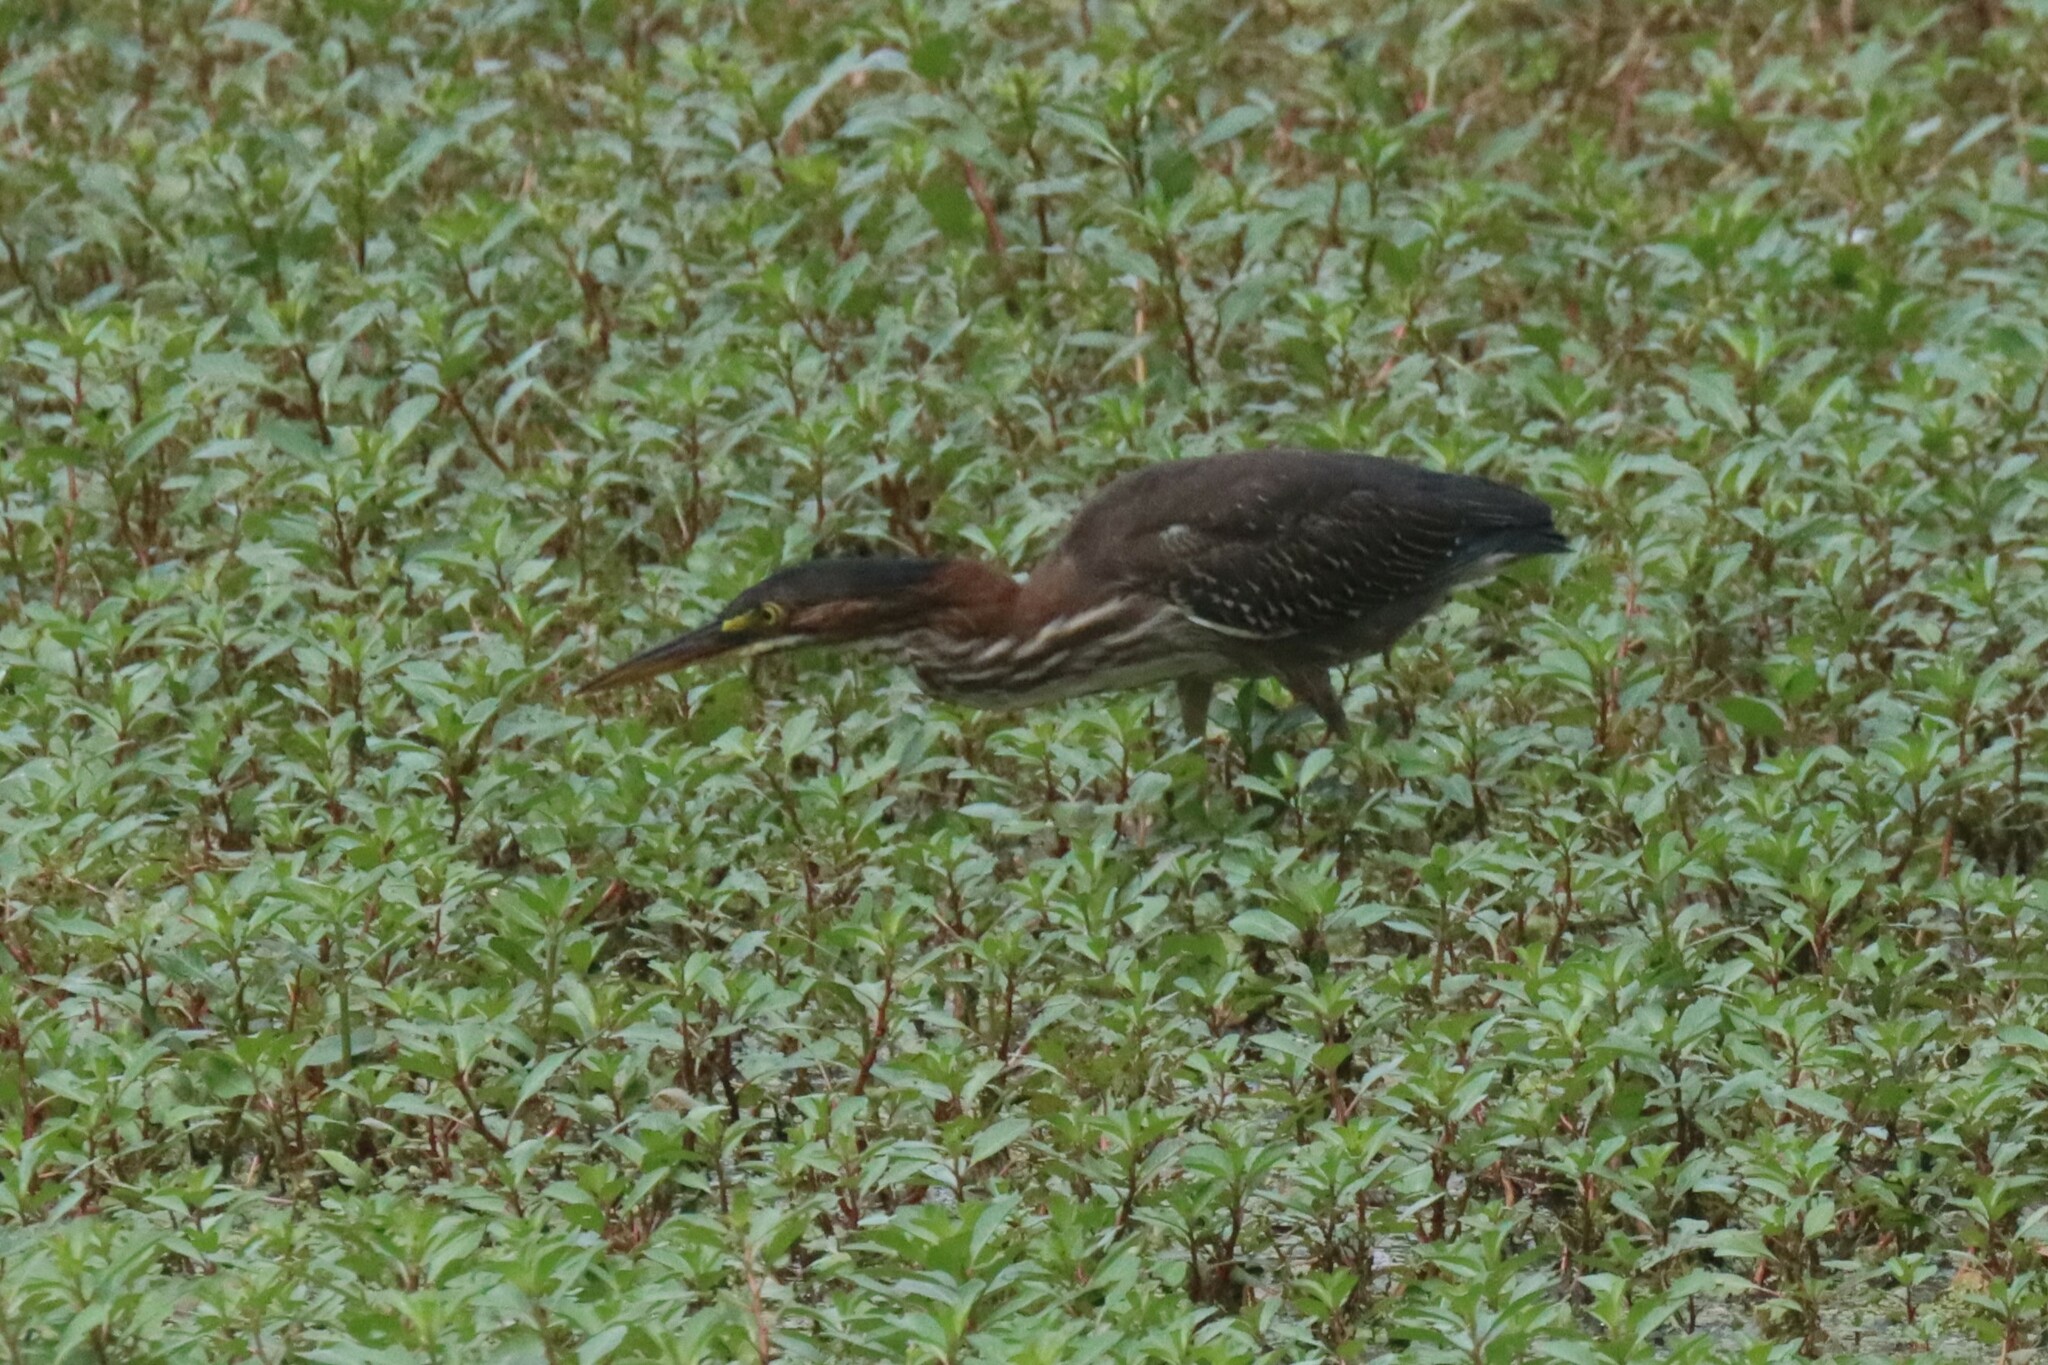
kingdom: Animalia
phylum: Chordata
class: Aves
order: Pelecaniformes
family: Ardeidae
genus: Butorides
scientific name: Butorides virescens
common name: Green heron
